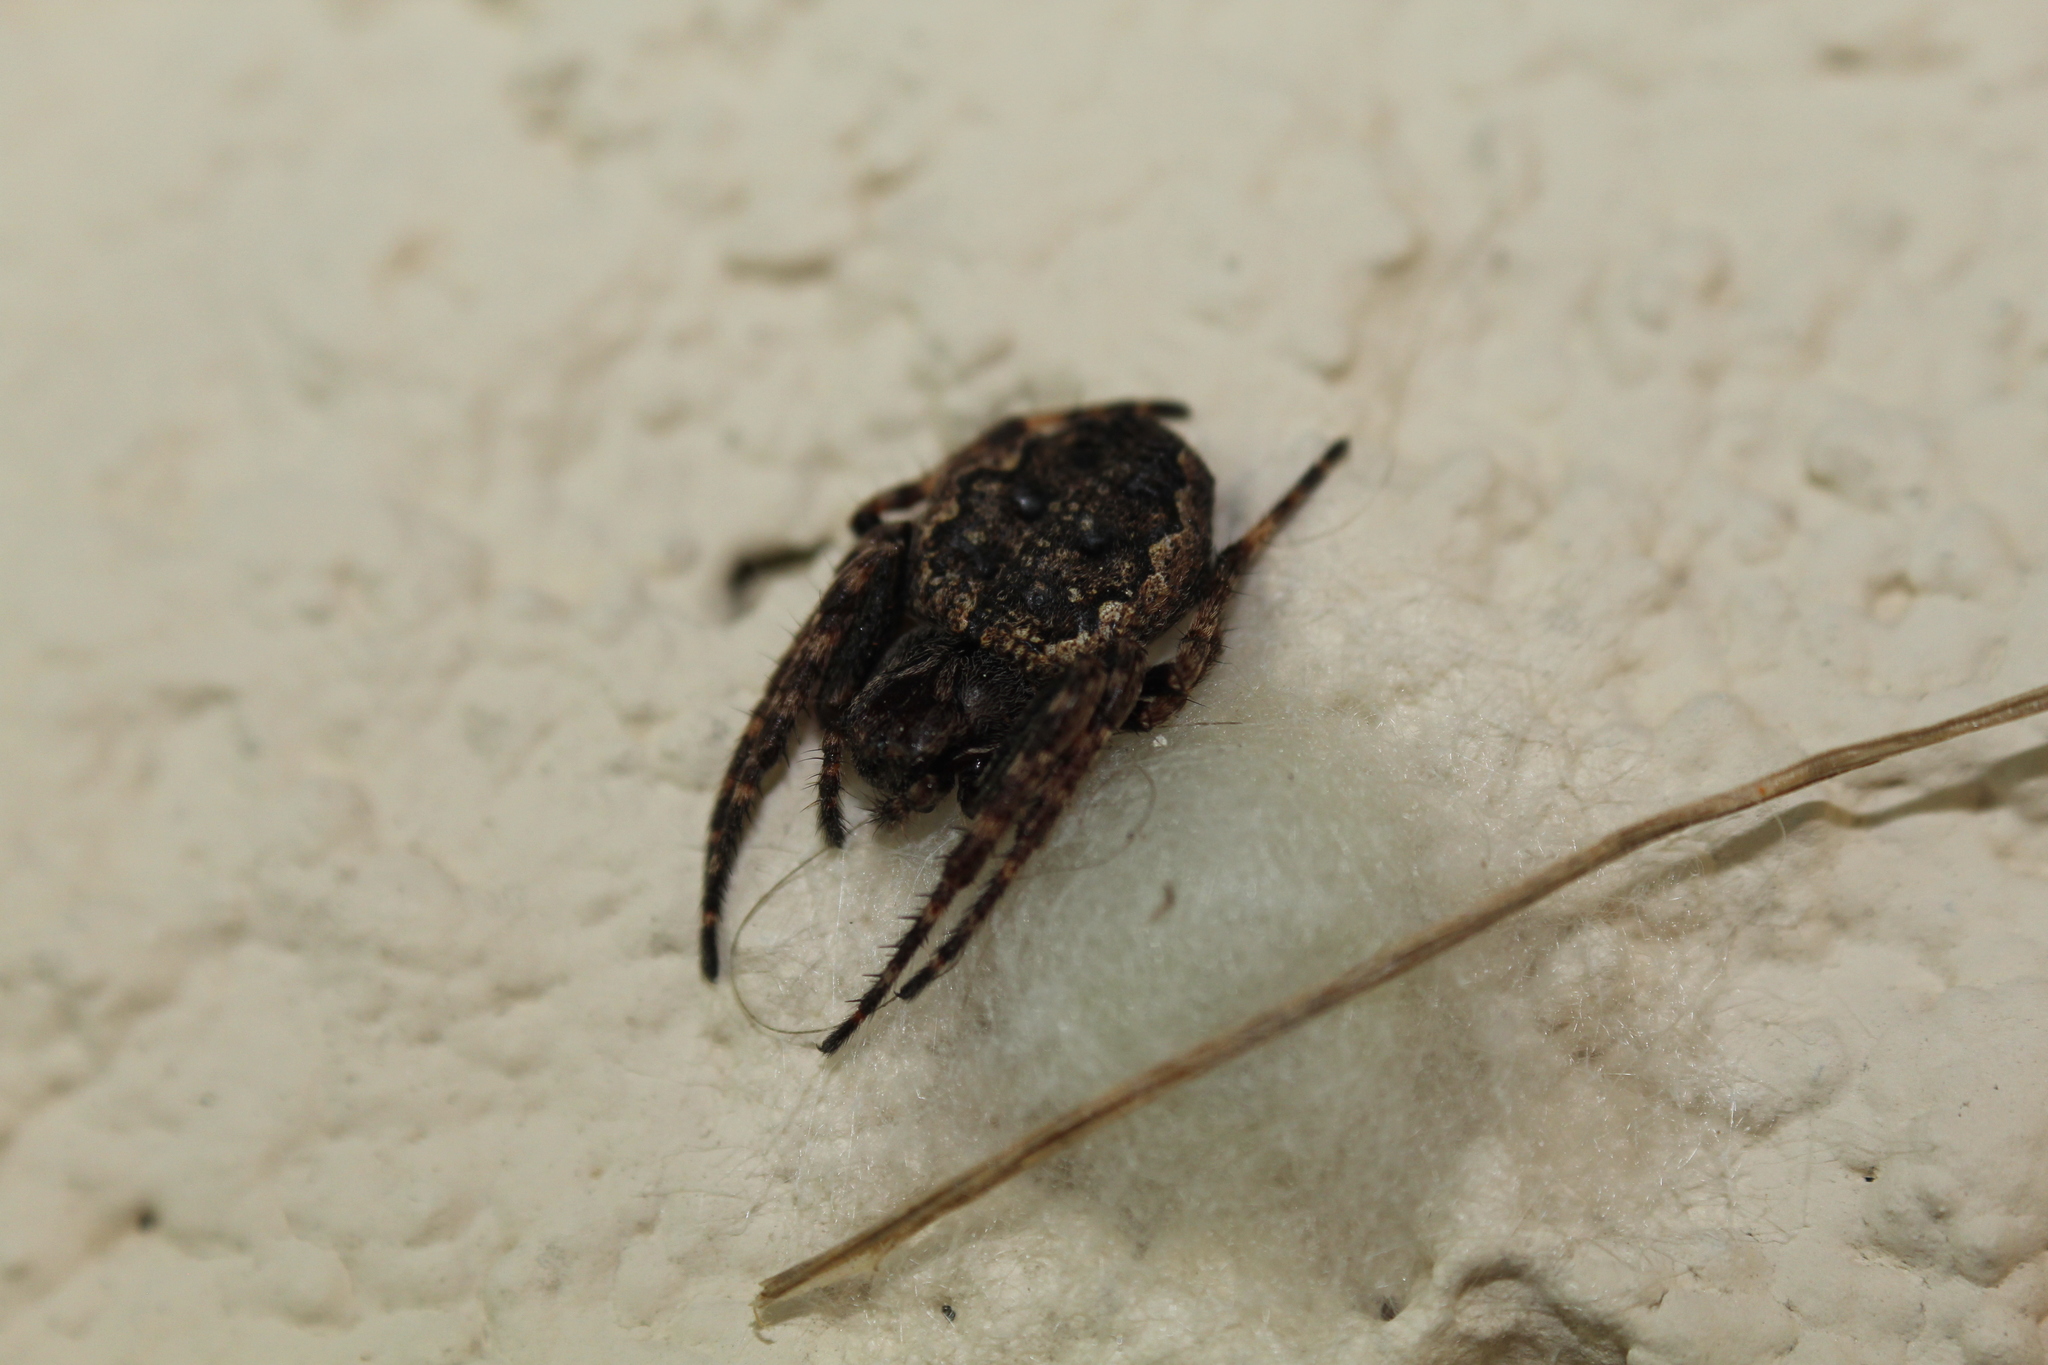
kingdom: Animalia
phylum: Arthropoda
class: Arachnida
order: Araneae
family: Araneidae
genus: Nuctenea
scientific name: Nuctenea umbratica
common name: Toad spider
